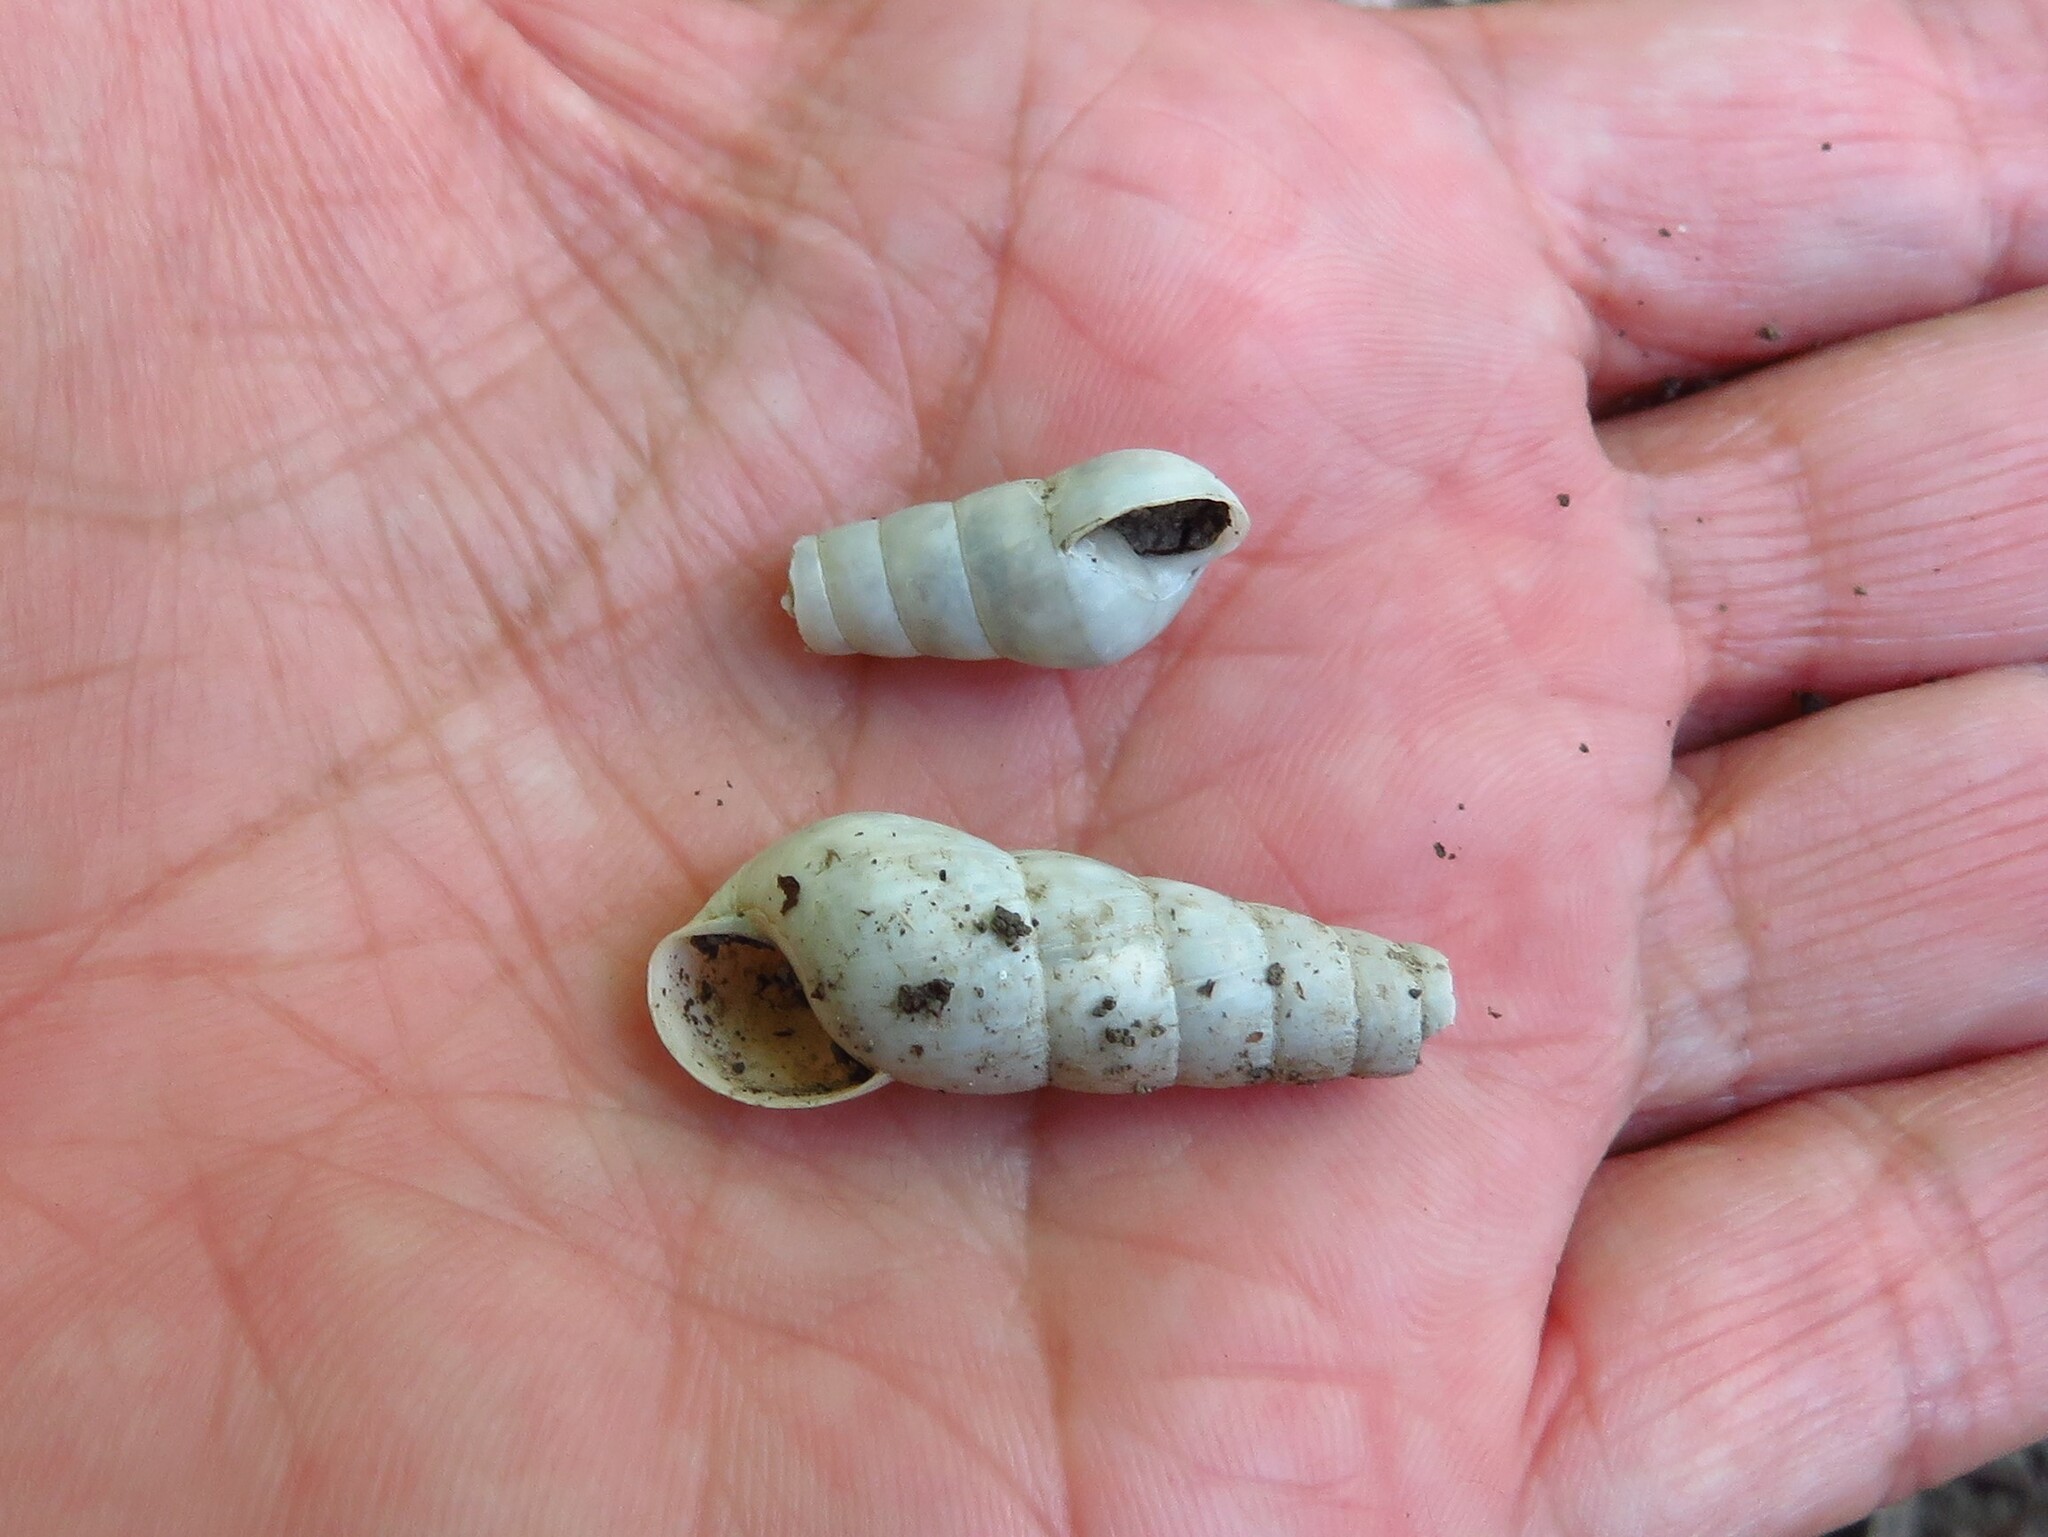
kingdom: Animalia
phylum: Mollusca
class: Gastropoda
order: Stylommatophora
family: Achatinidae
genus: Rumina
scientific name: Rumina decollata
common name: Decollate snail
